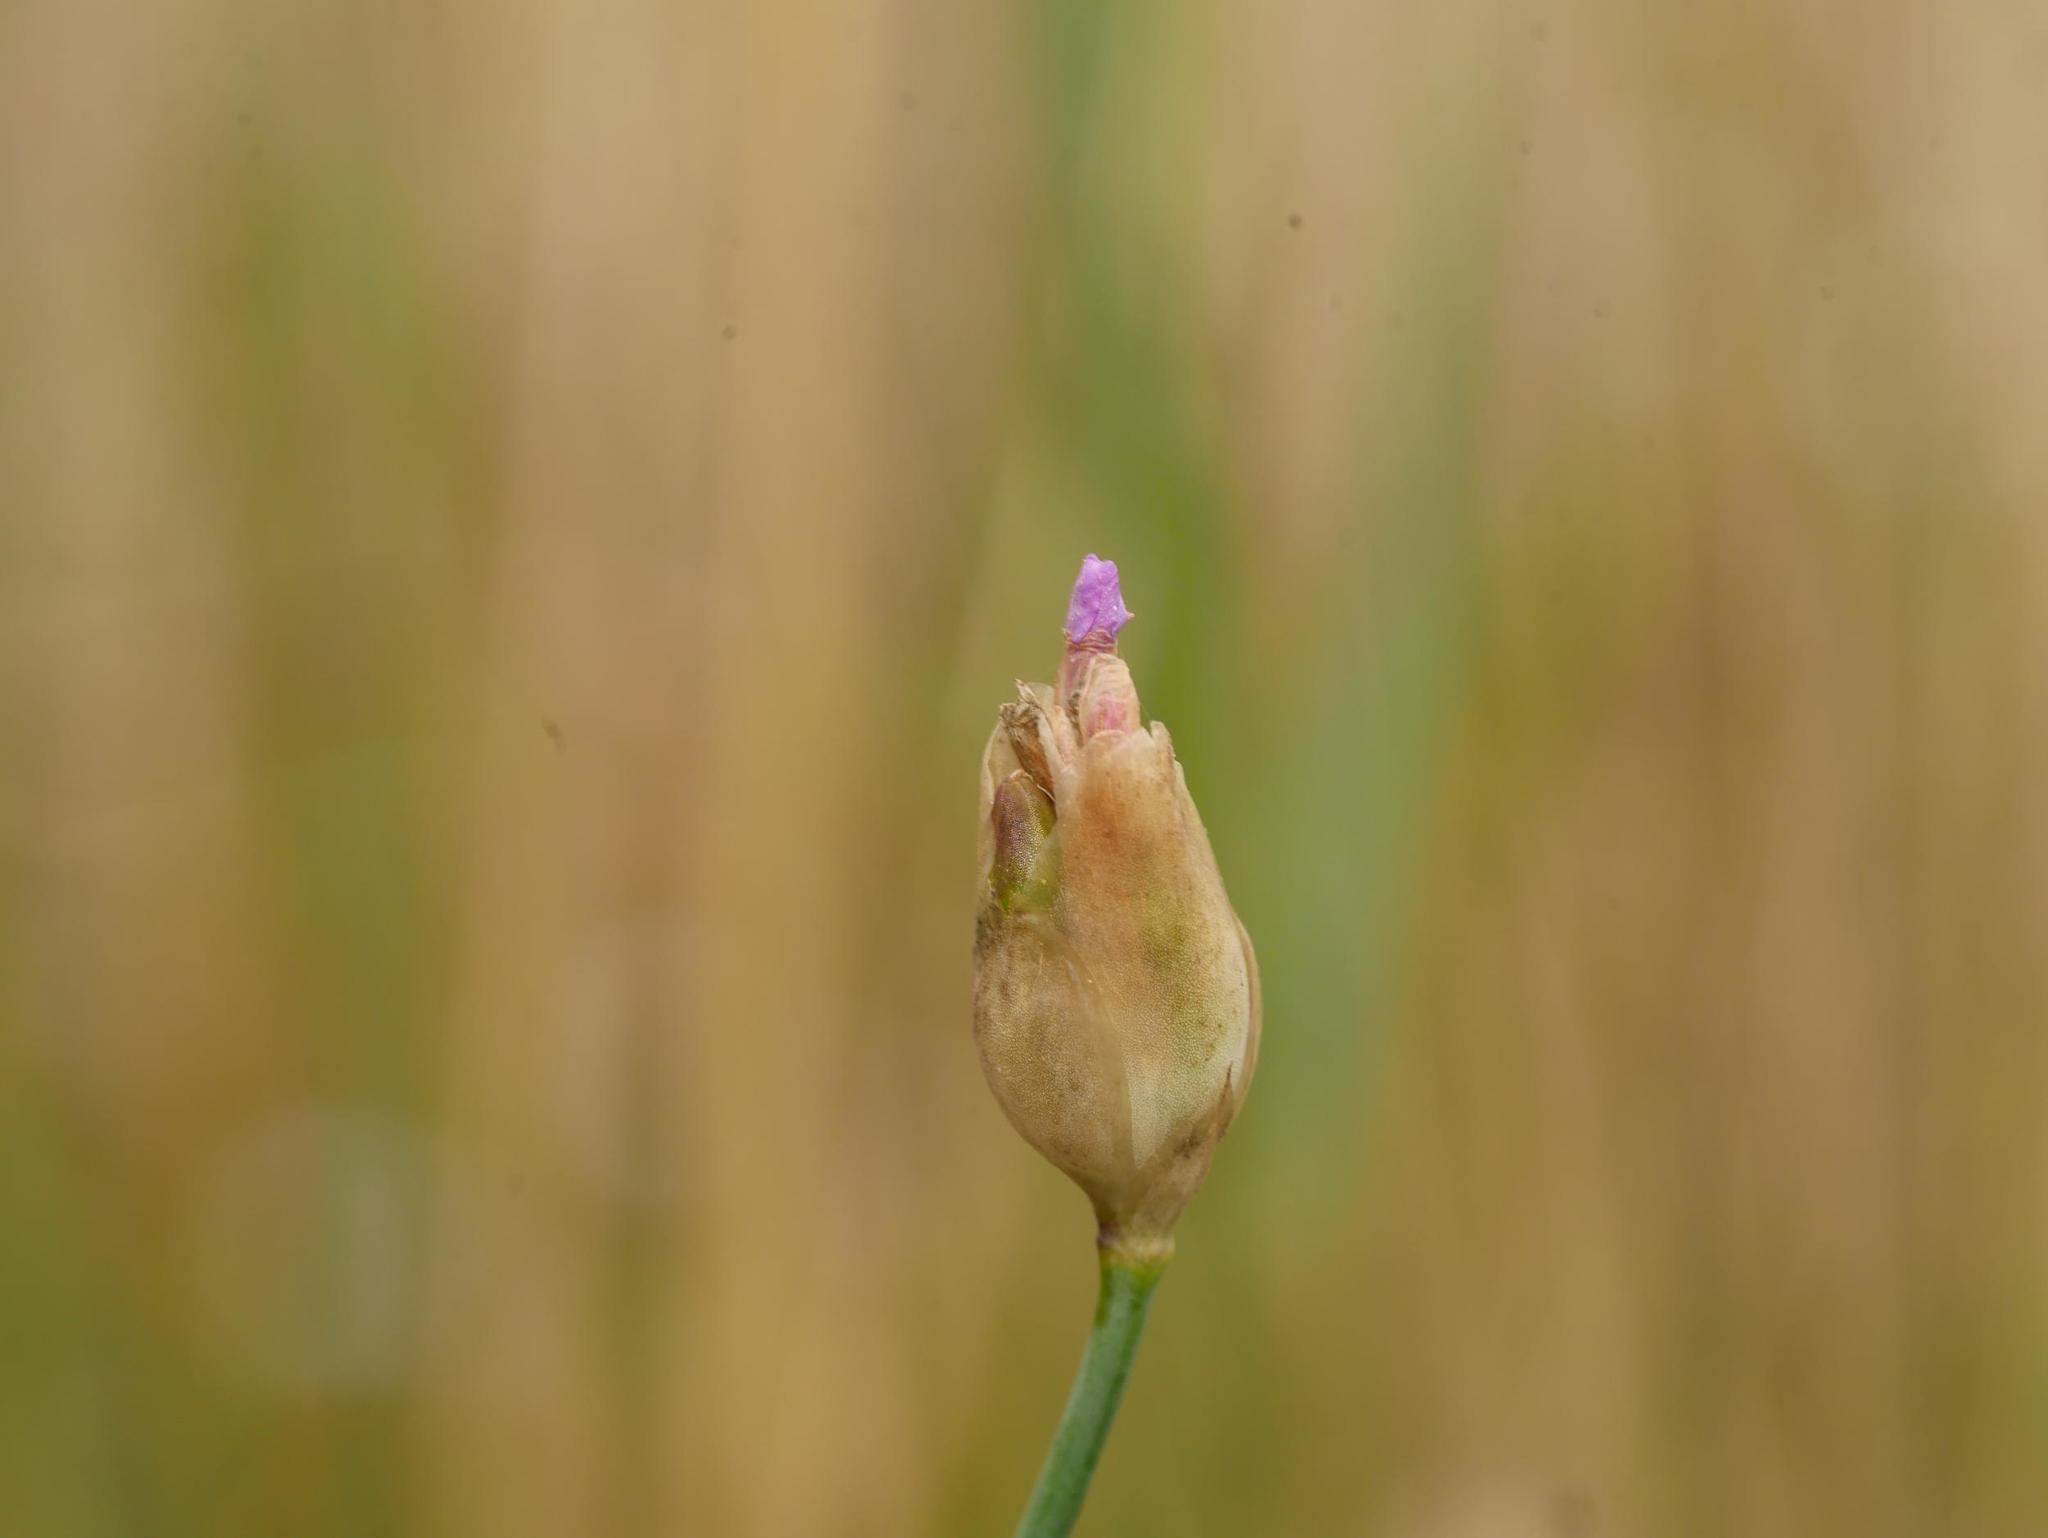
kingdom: Plantae
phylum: Tracheophyta
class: Magnoliopsida
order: Caryophyllales
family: Caryophyllaceae
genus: Petrorhagia
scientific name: Petrorhagia prolifera
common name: Proliferous pink
